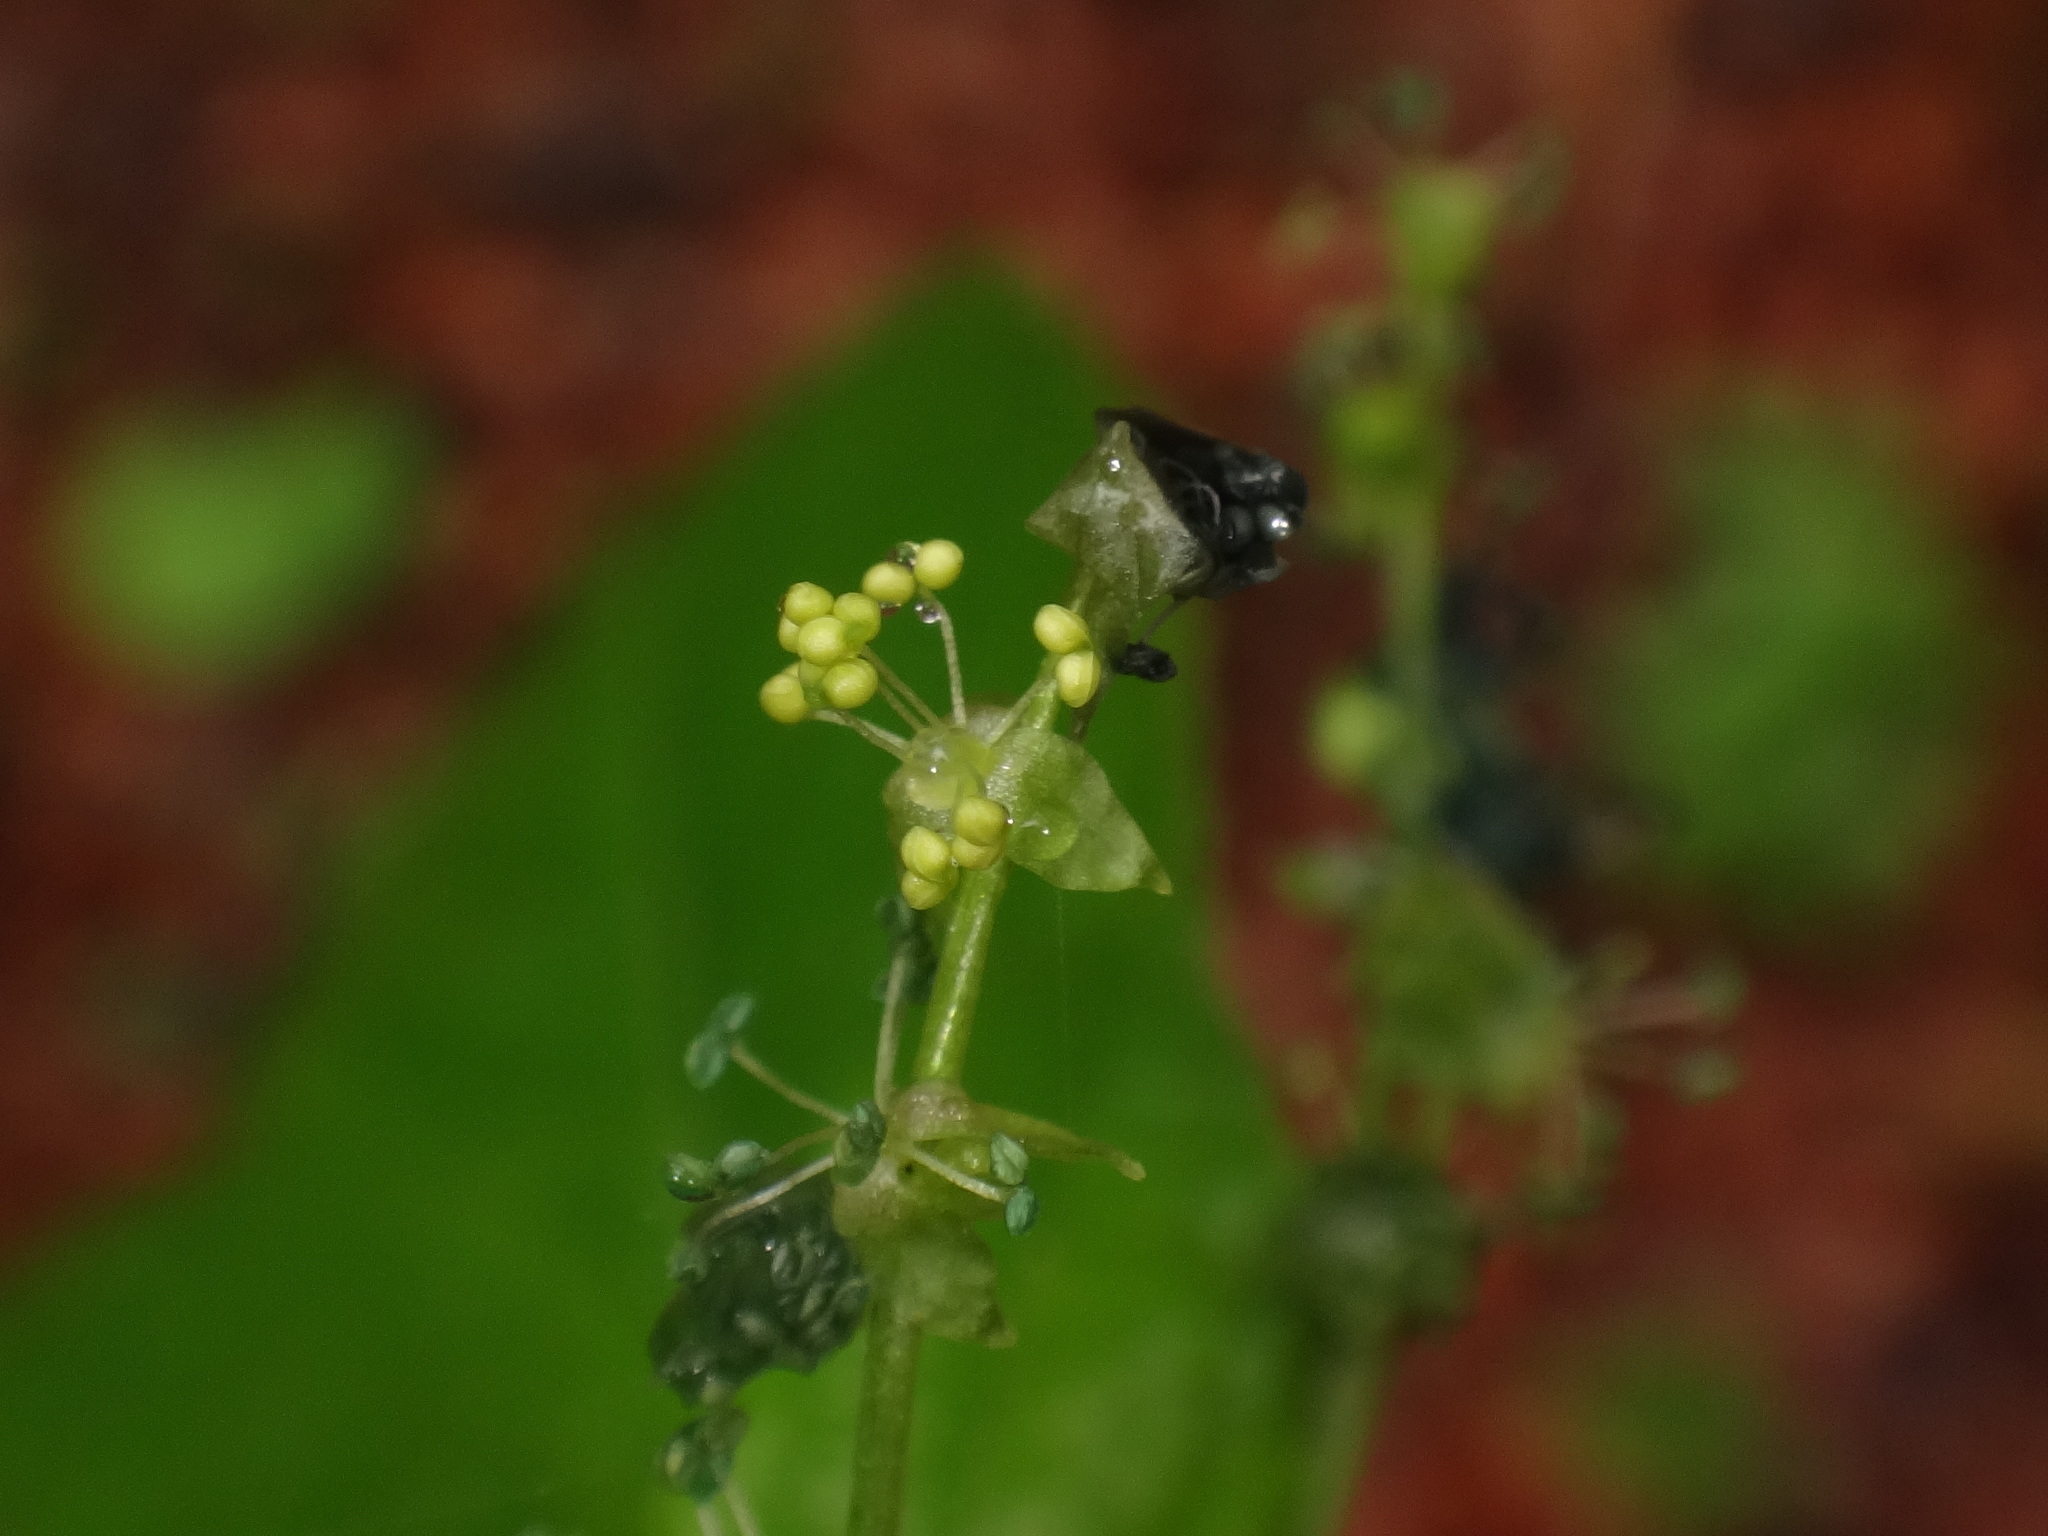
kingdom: Plantae
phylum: Tracheophyta
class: Magnoliopsida
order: Malpighiales
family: Euphorbiaceae
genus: Mercurialis
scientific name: Mercurialis perennis
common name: Dog mercury
